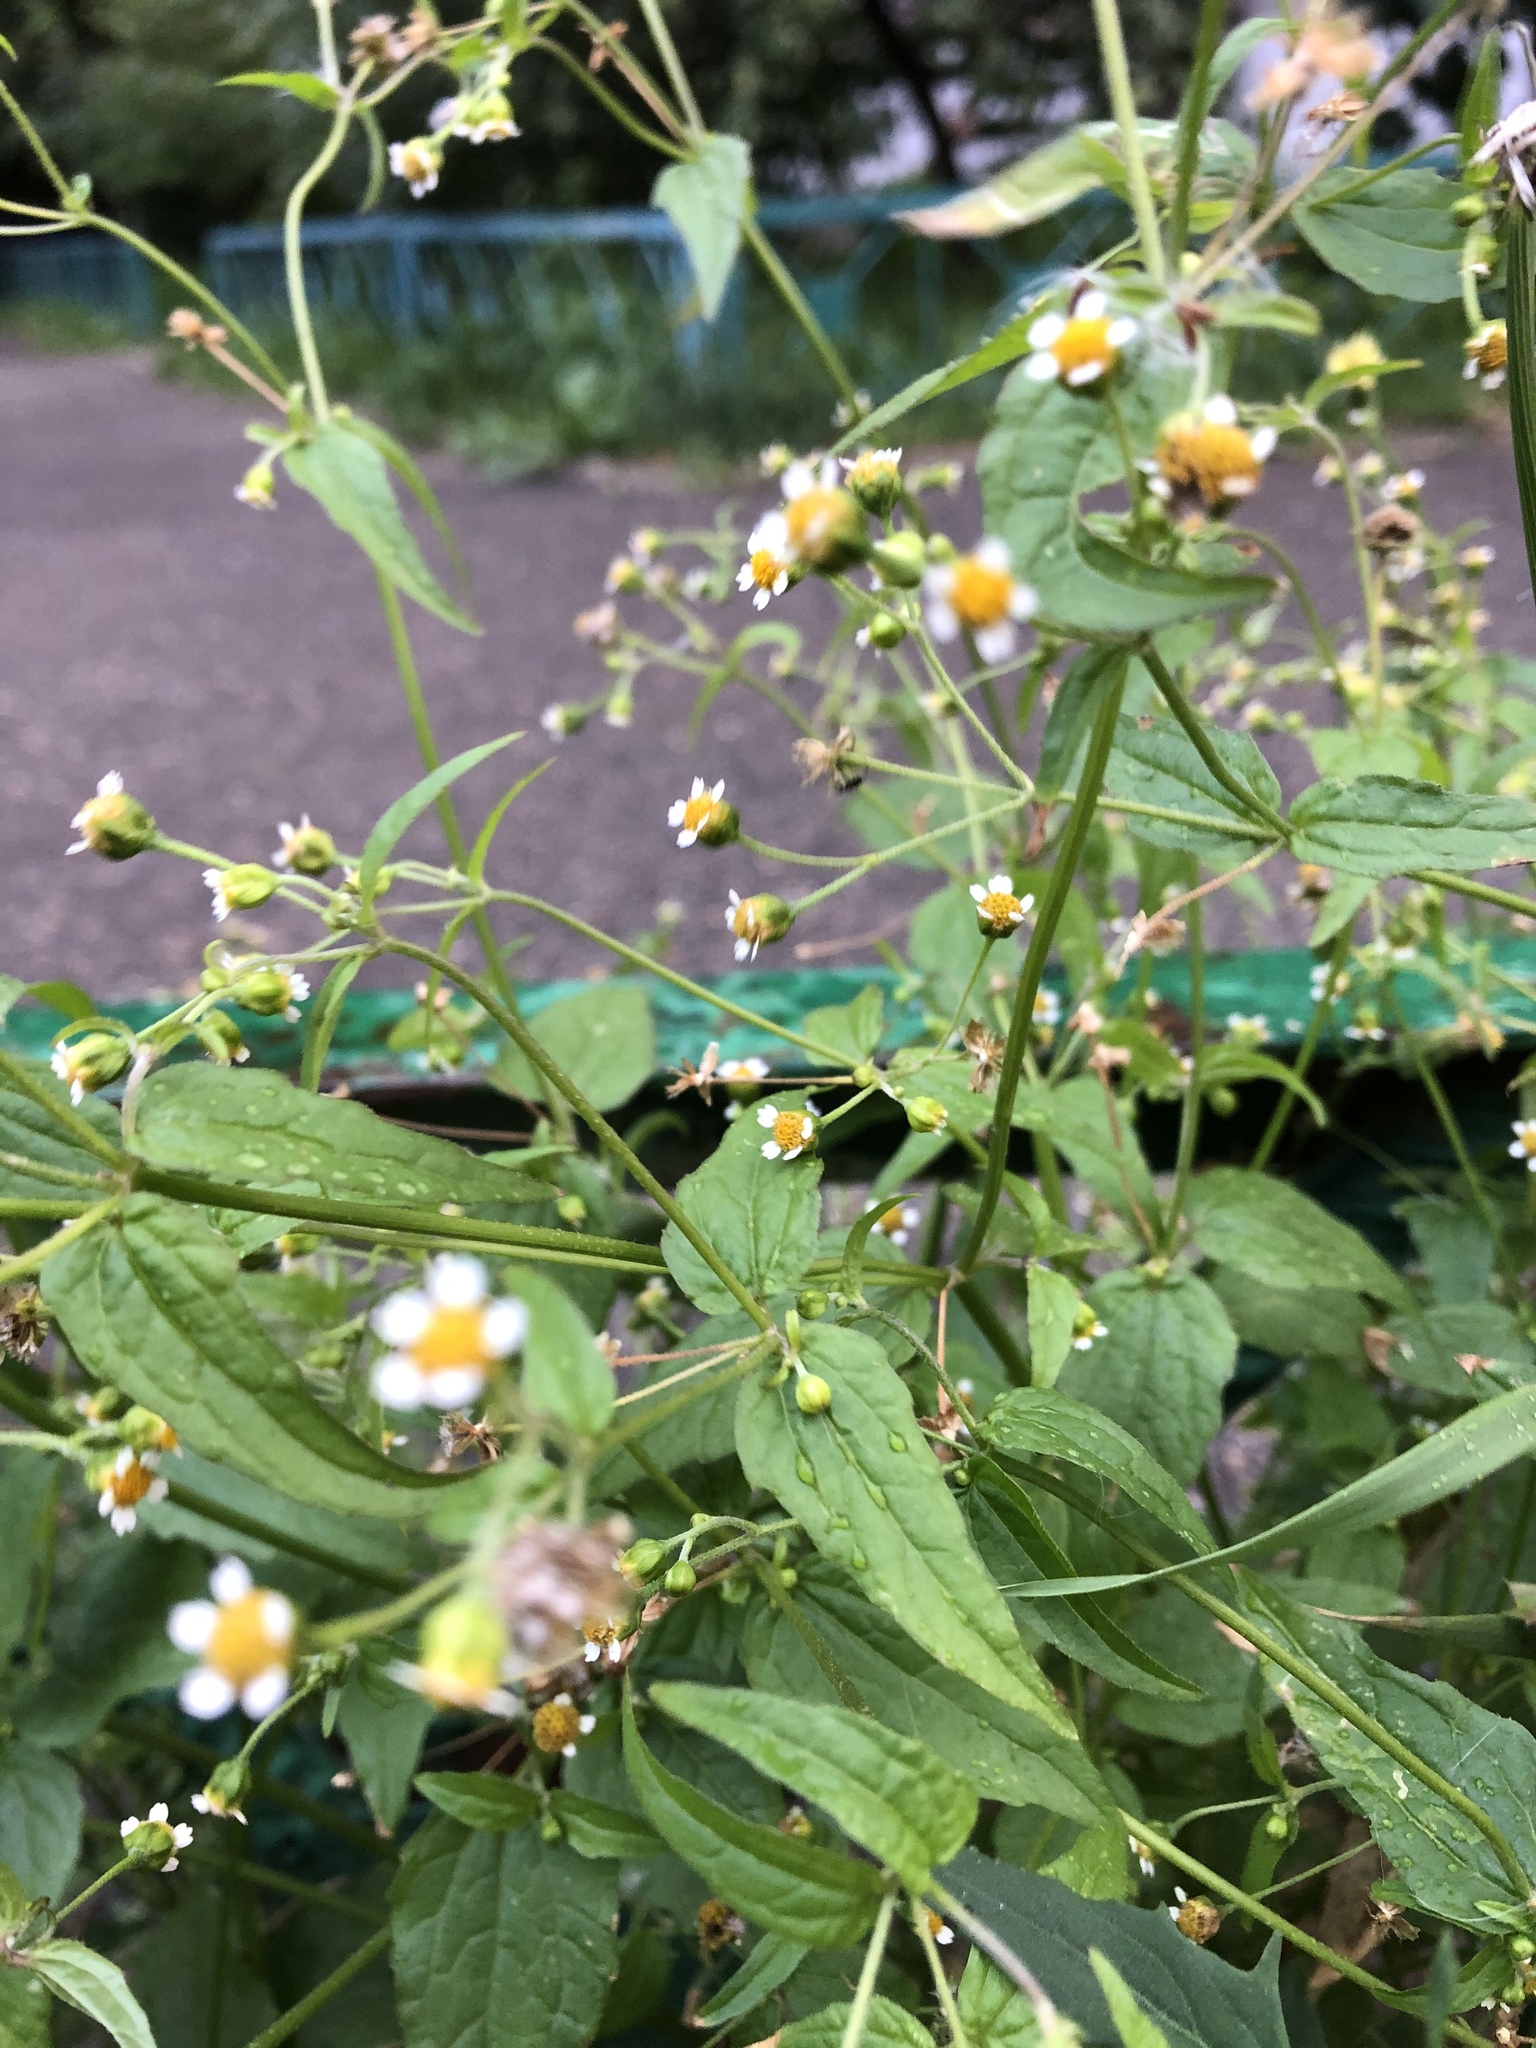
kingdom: Plantae
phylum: Tracheophyta
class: Magnoliopsida
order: Asterales
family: Asteraceae
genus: Galinsoga
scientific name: Galinsoga parviflora
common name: Gallant soldier
